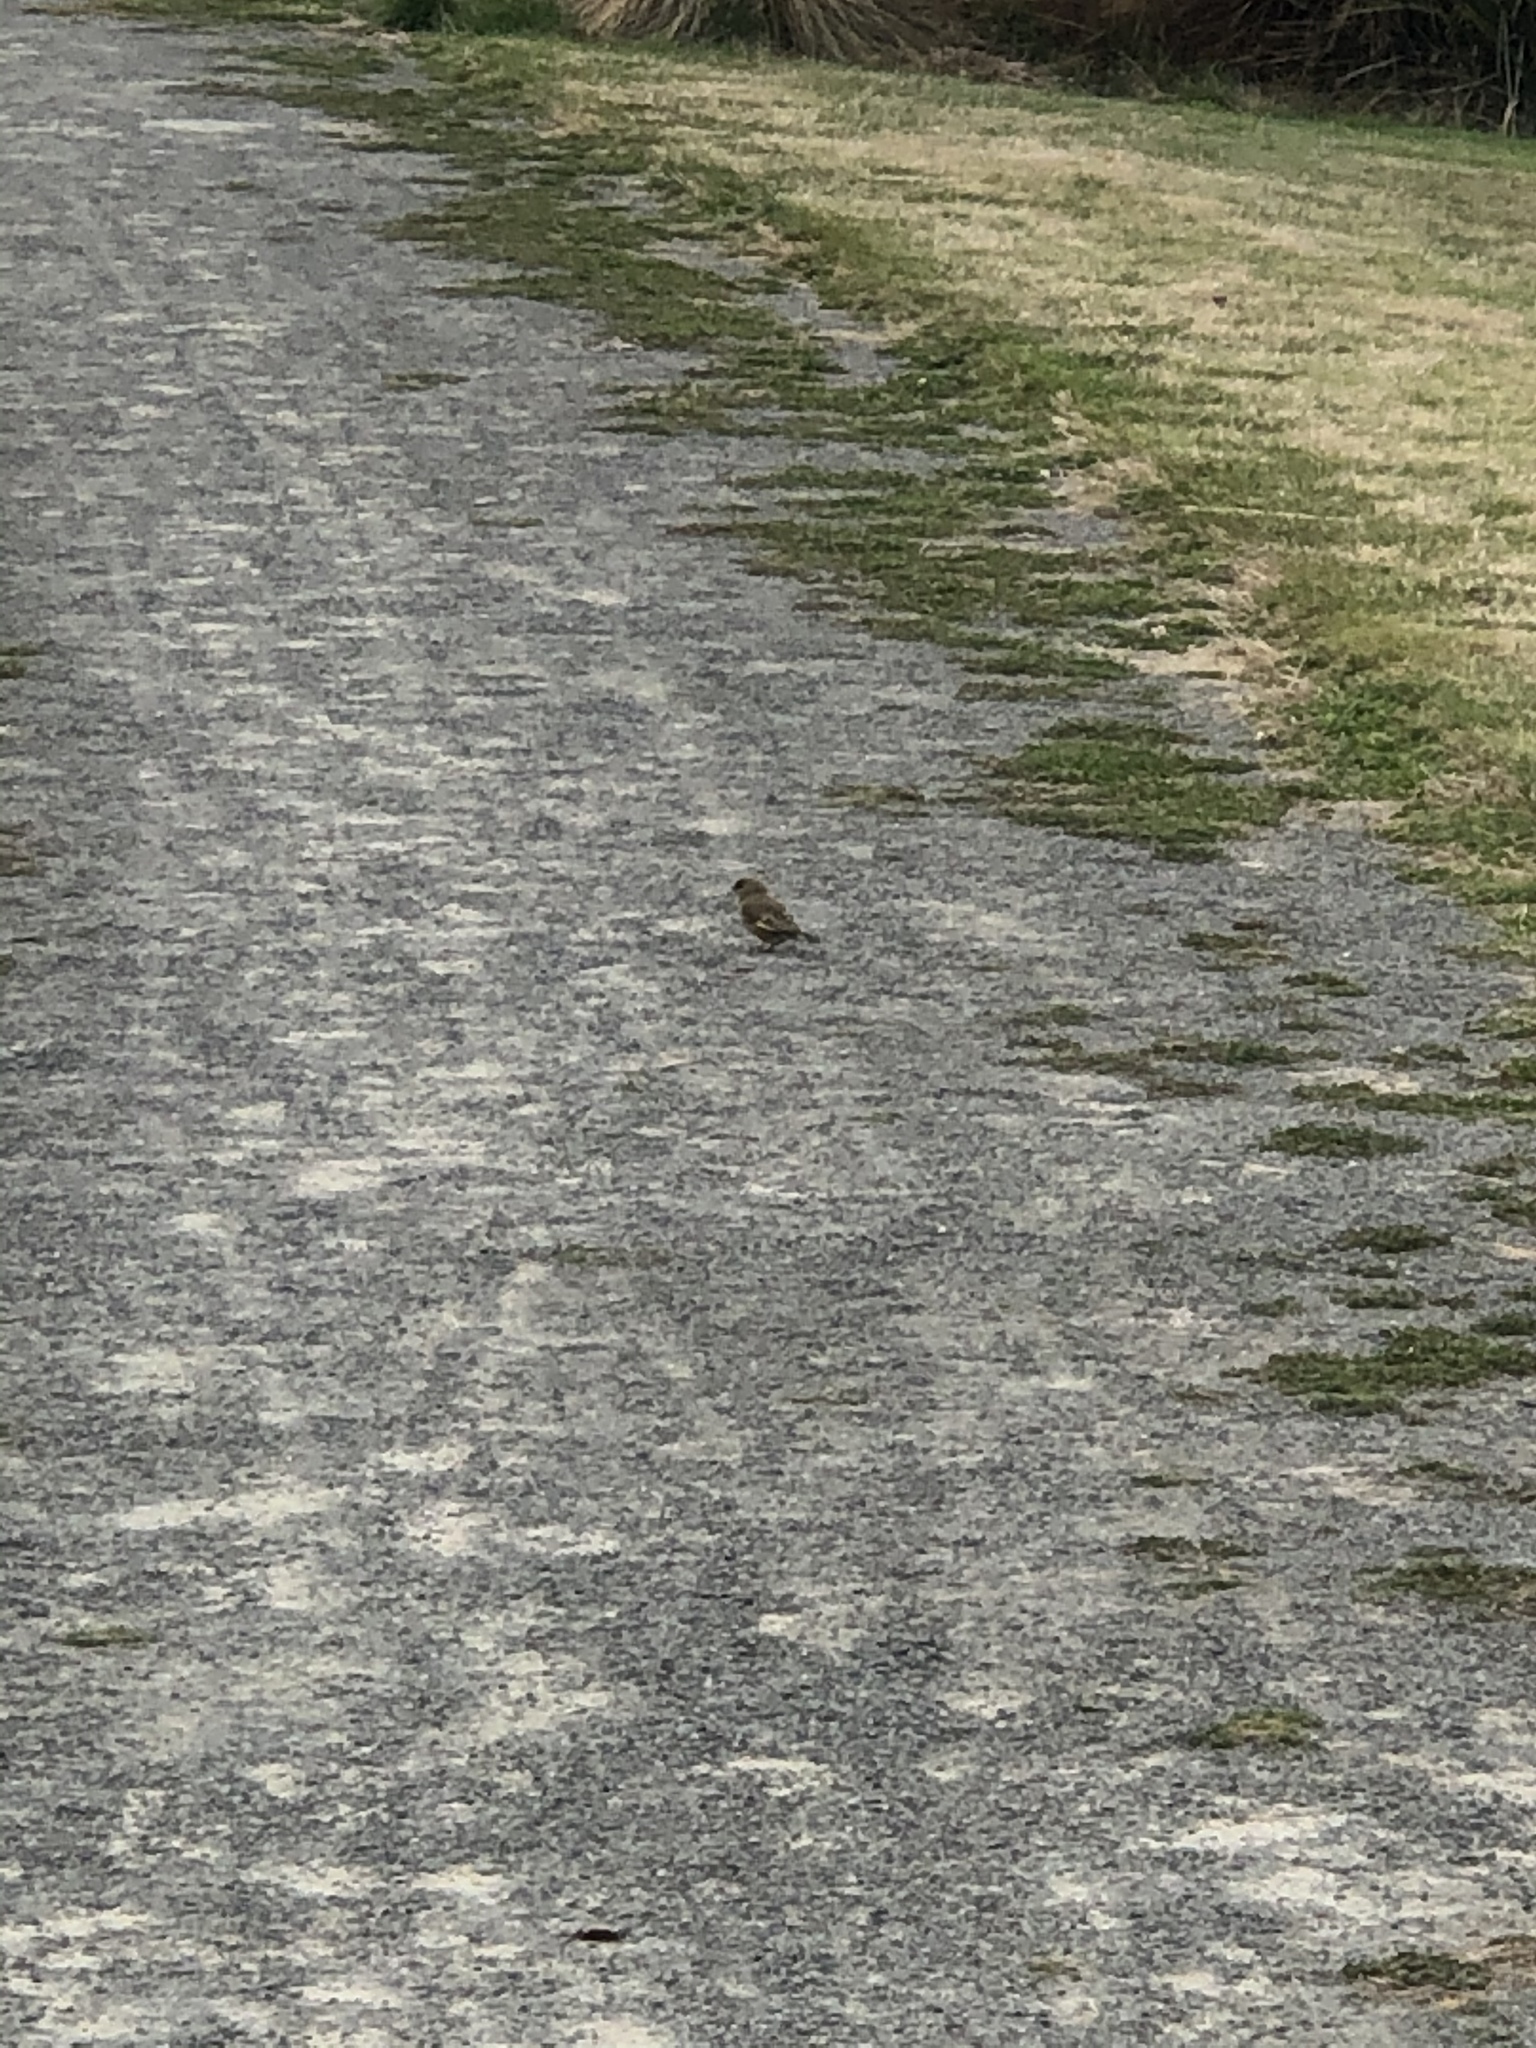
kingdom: Plantae
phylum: Tracheophyta
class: Liliopsida
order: Poales
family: Poaceae
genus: Chloris
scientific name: Chloris chloris
